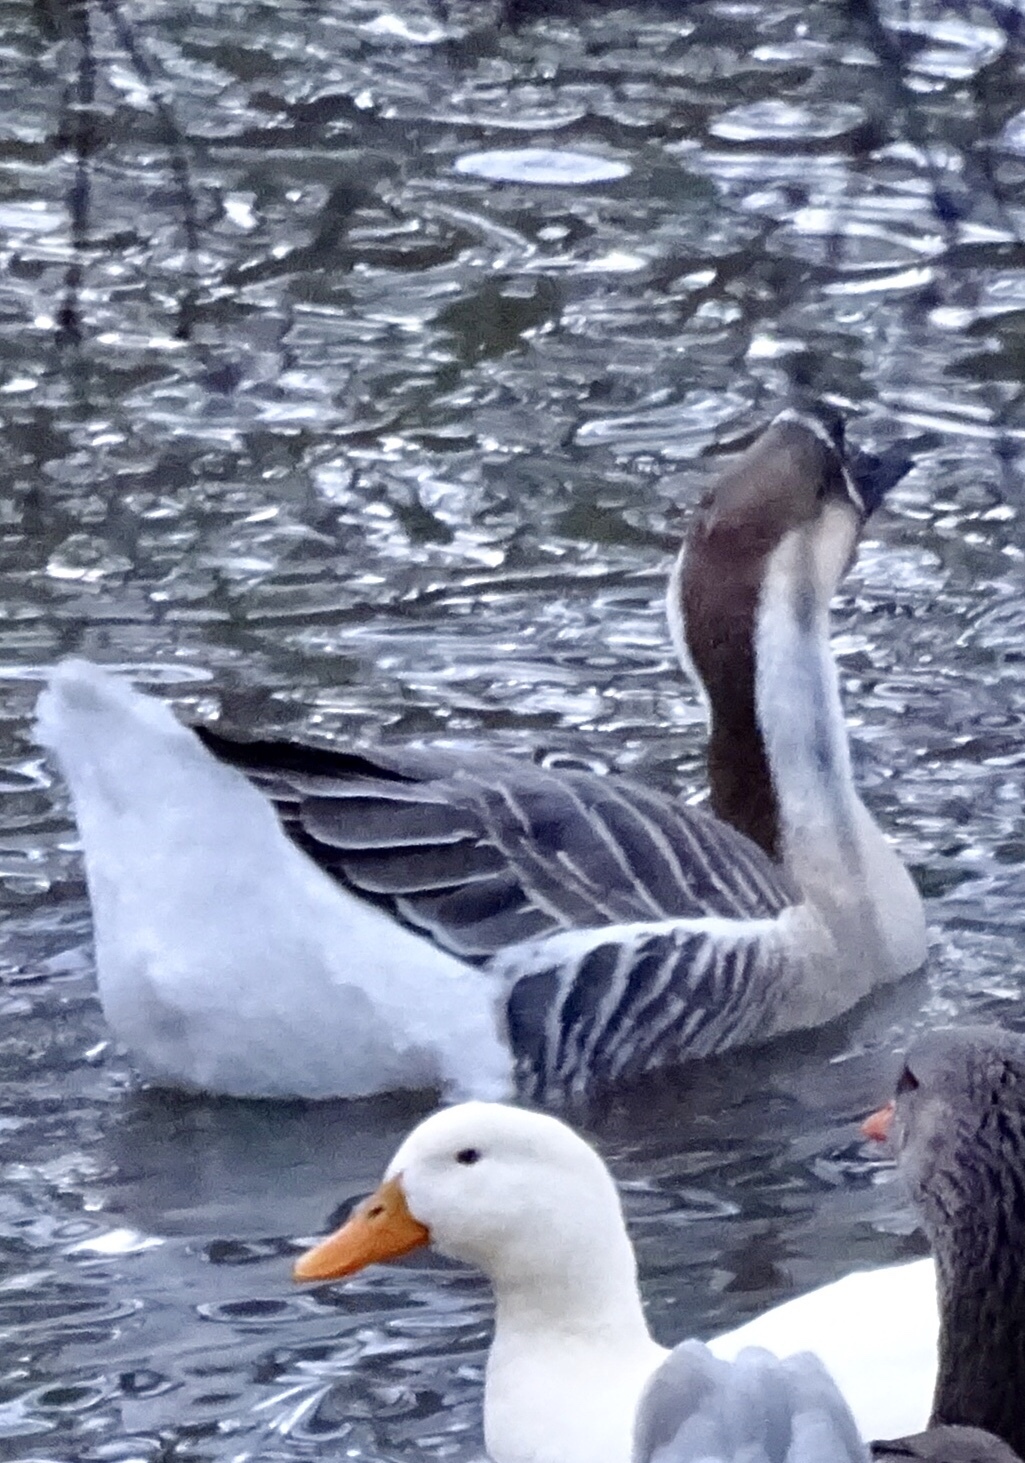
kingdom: Animalia
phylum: Chordata
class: Aves
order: Anseriformes
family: Anatidae
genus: Anser
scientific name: Anser cygnoides
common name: Swan goose
